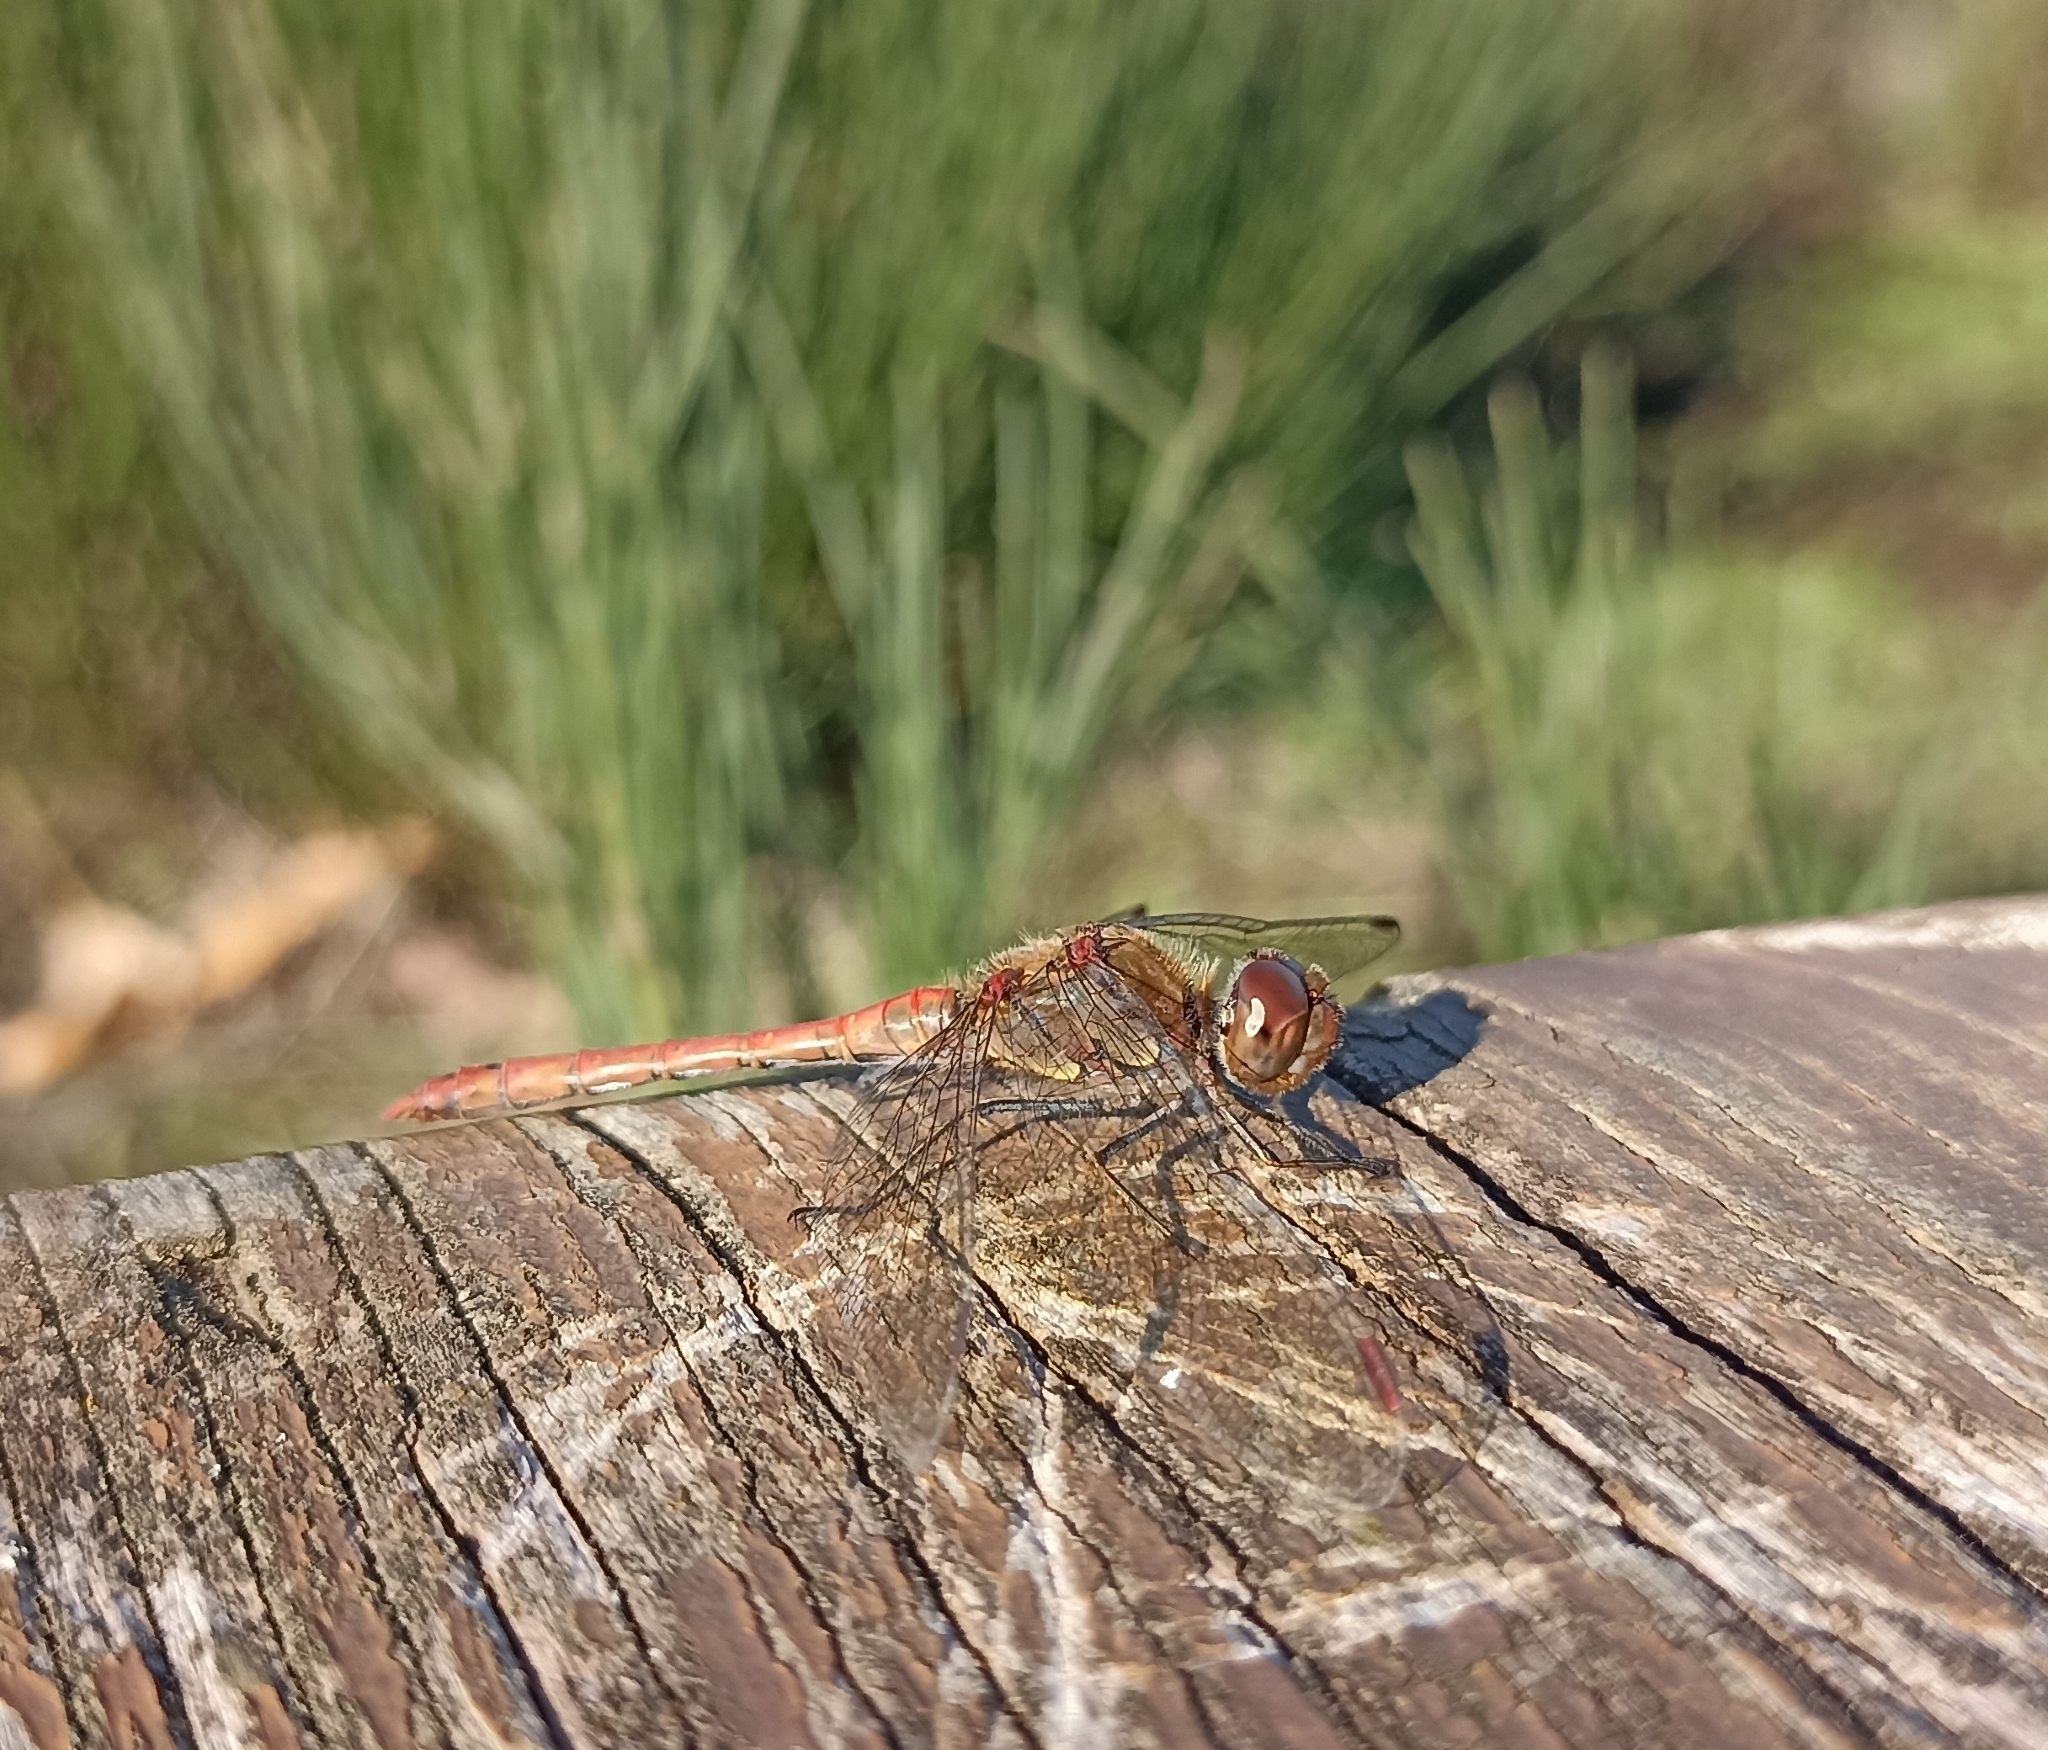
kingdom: Animalia
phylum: Arthropoda
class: Insecta
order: Odonata
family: Libellulidae
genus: Sympetrum
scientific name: Sympetrum striolatum
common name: Common darter
